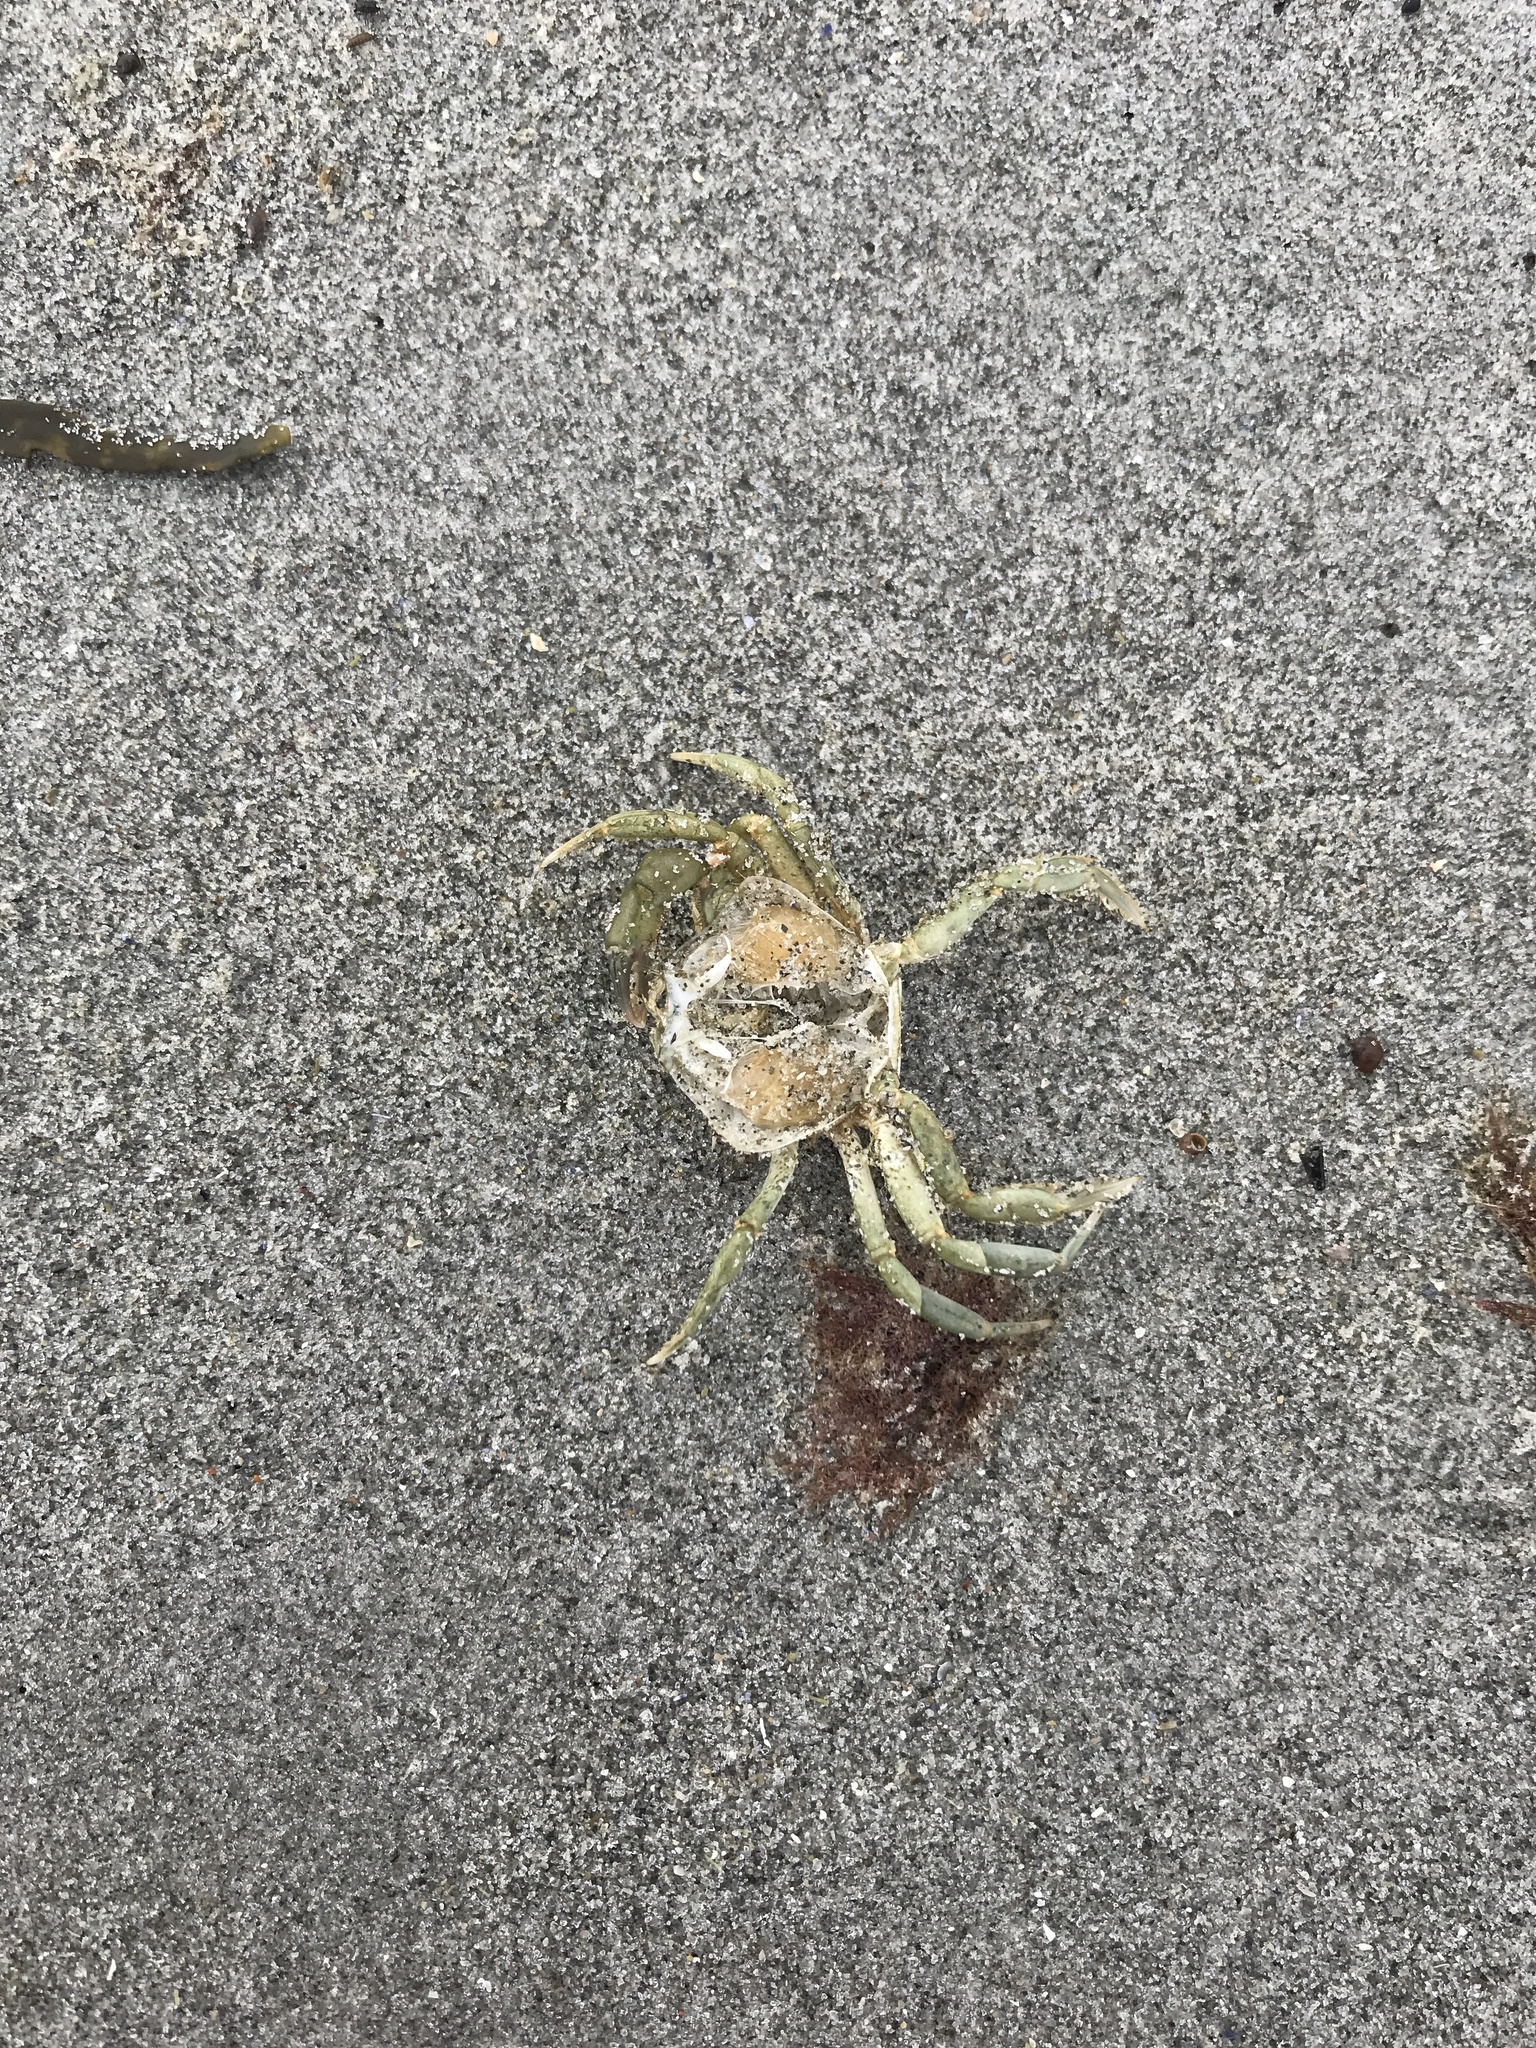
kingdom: Animalia
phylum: Arthropoda
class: Malacostraca
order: Decapoda
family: Carcinidae
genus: Carcinus
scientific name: Carcinus maenas
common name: European green crab
